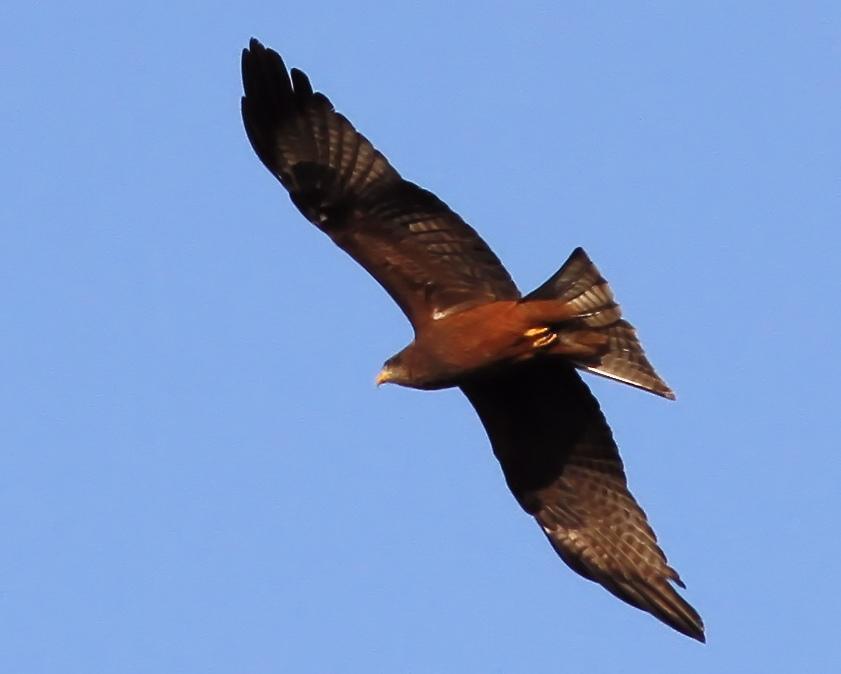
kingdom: Animalia
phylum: Chordata
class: Aves
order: Accipitriformes
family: Accipitridae
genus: Milvus
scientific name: Milvus migrans
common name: Black kite
